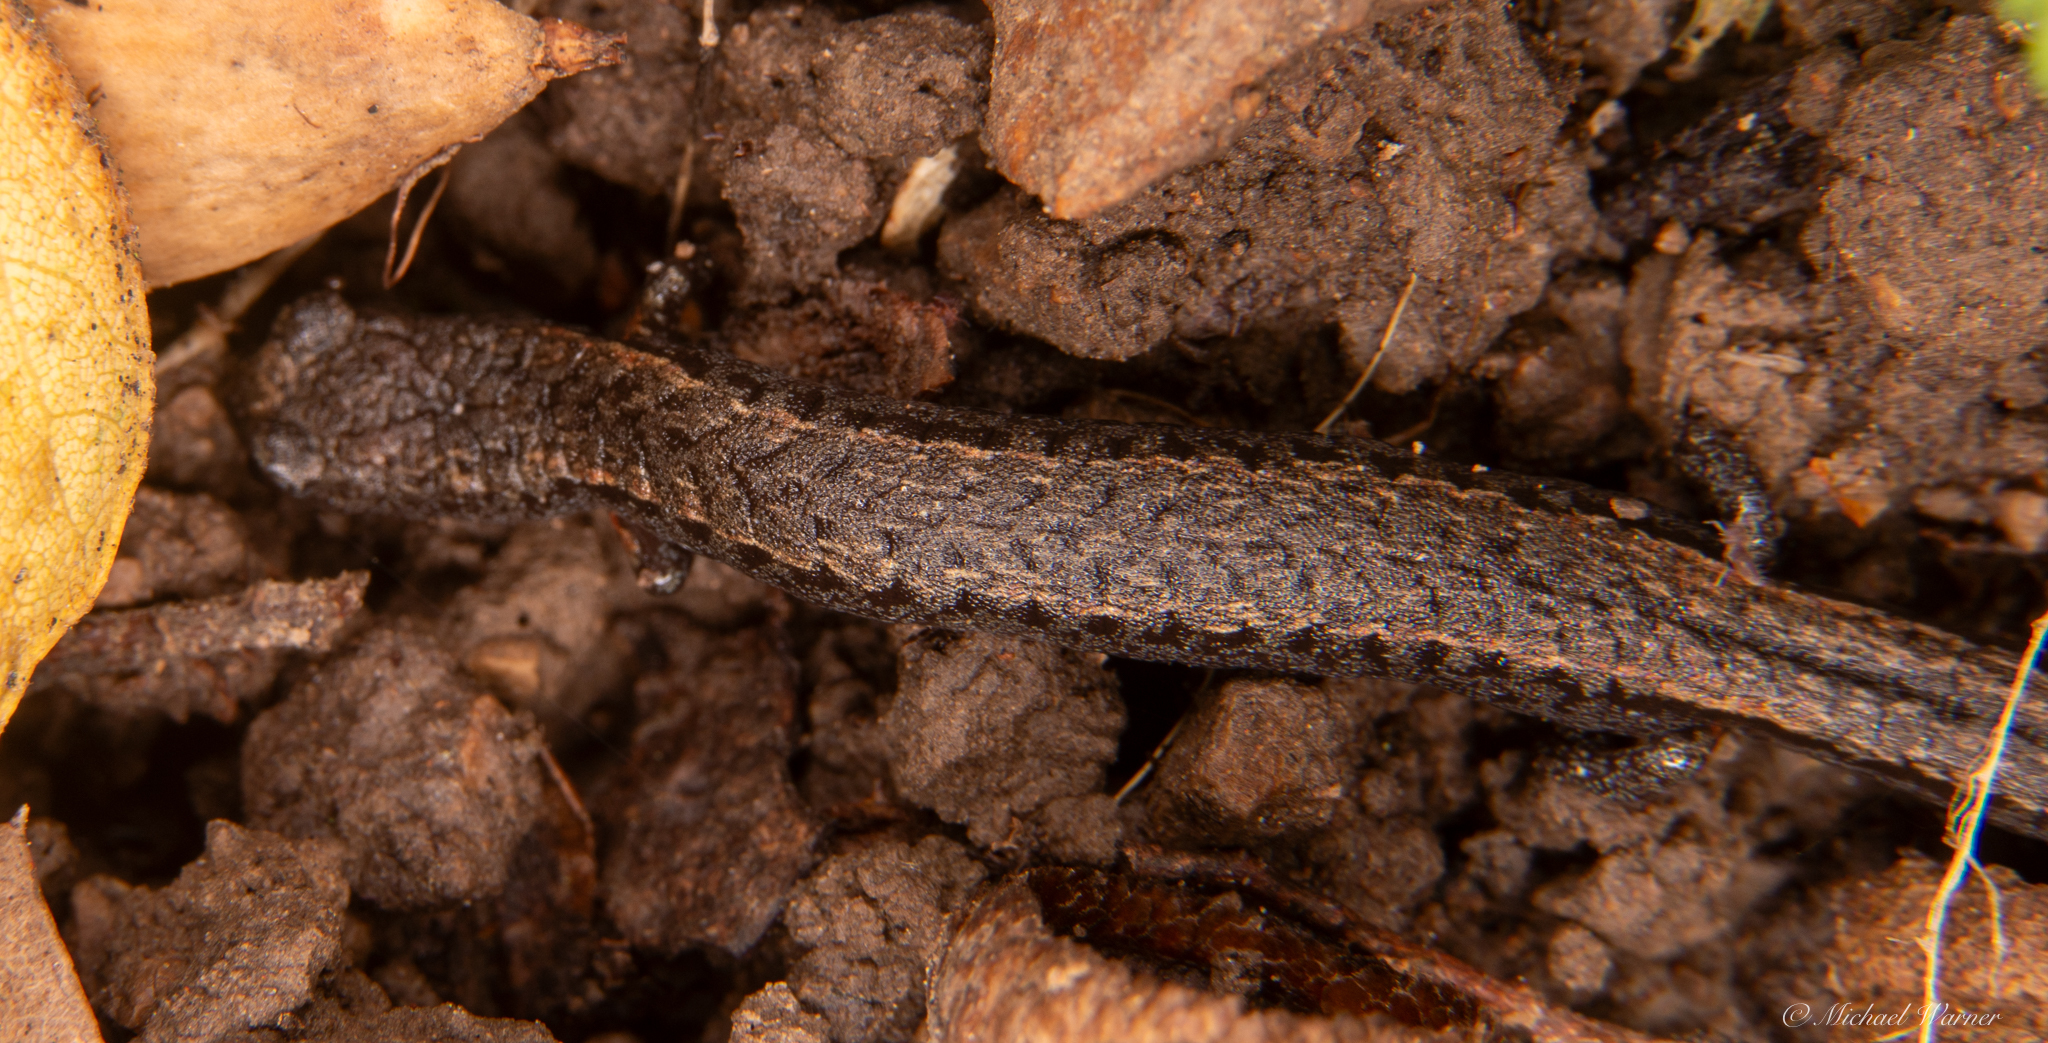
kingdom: Animalia
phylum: Chordata
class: Amphibia
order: Caudata
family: Plethodontidae
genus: Batrachoseps
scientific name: Batrachoseps attenuatus
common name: California slender salamander
